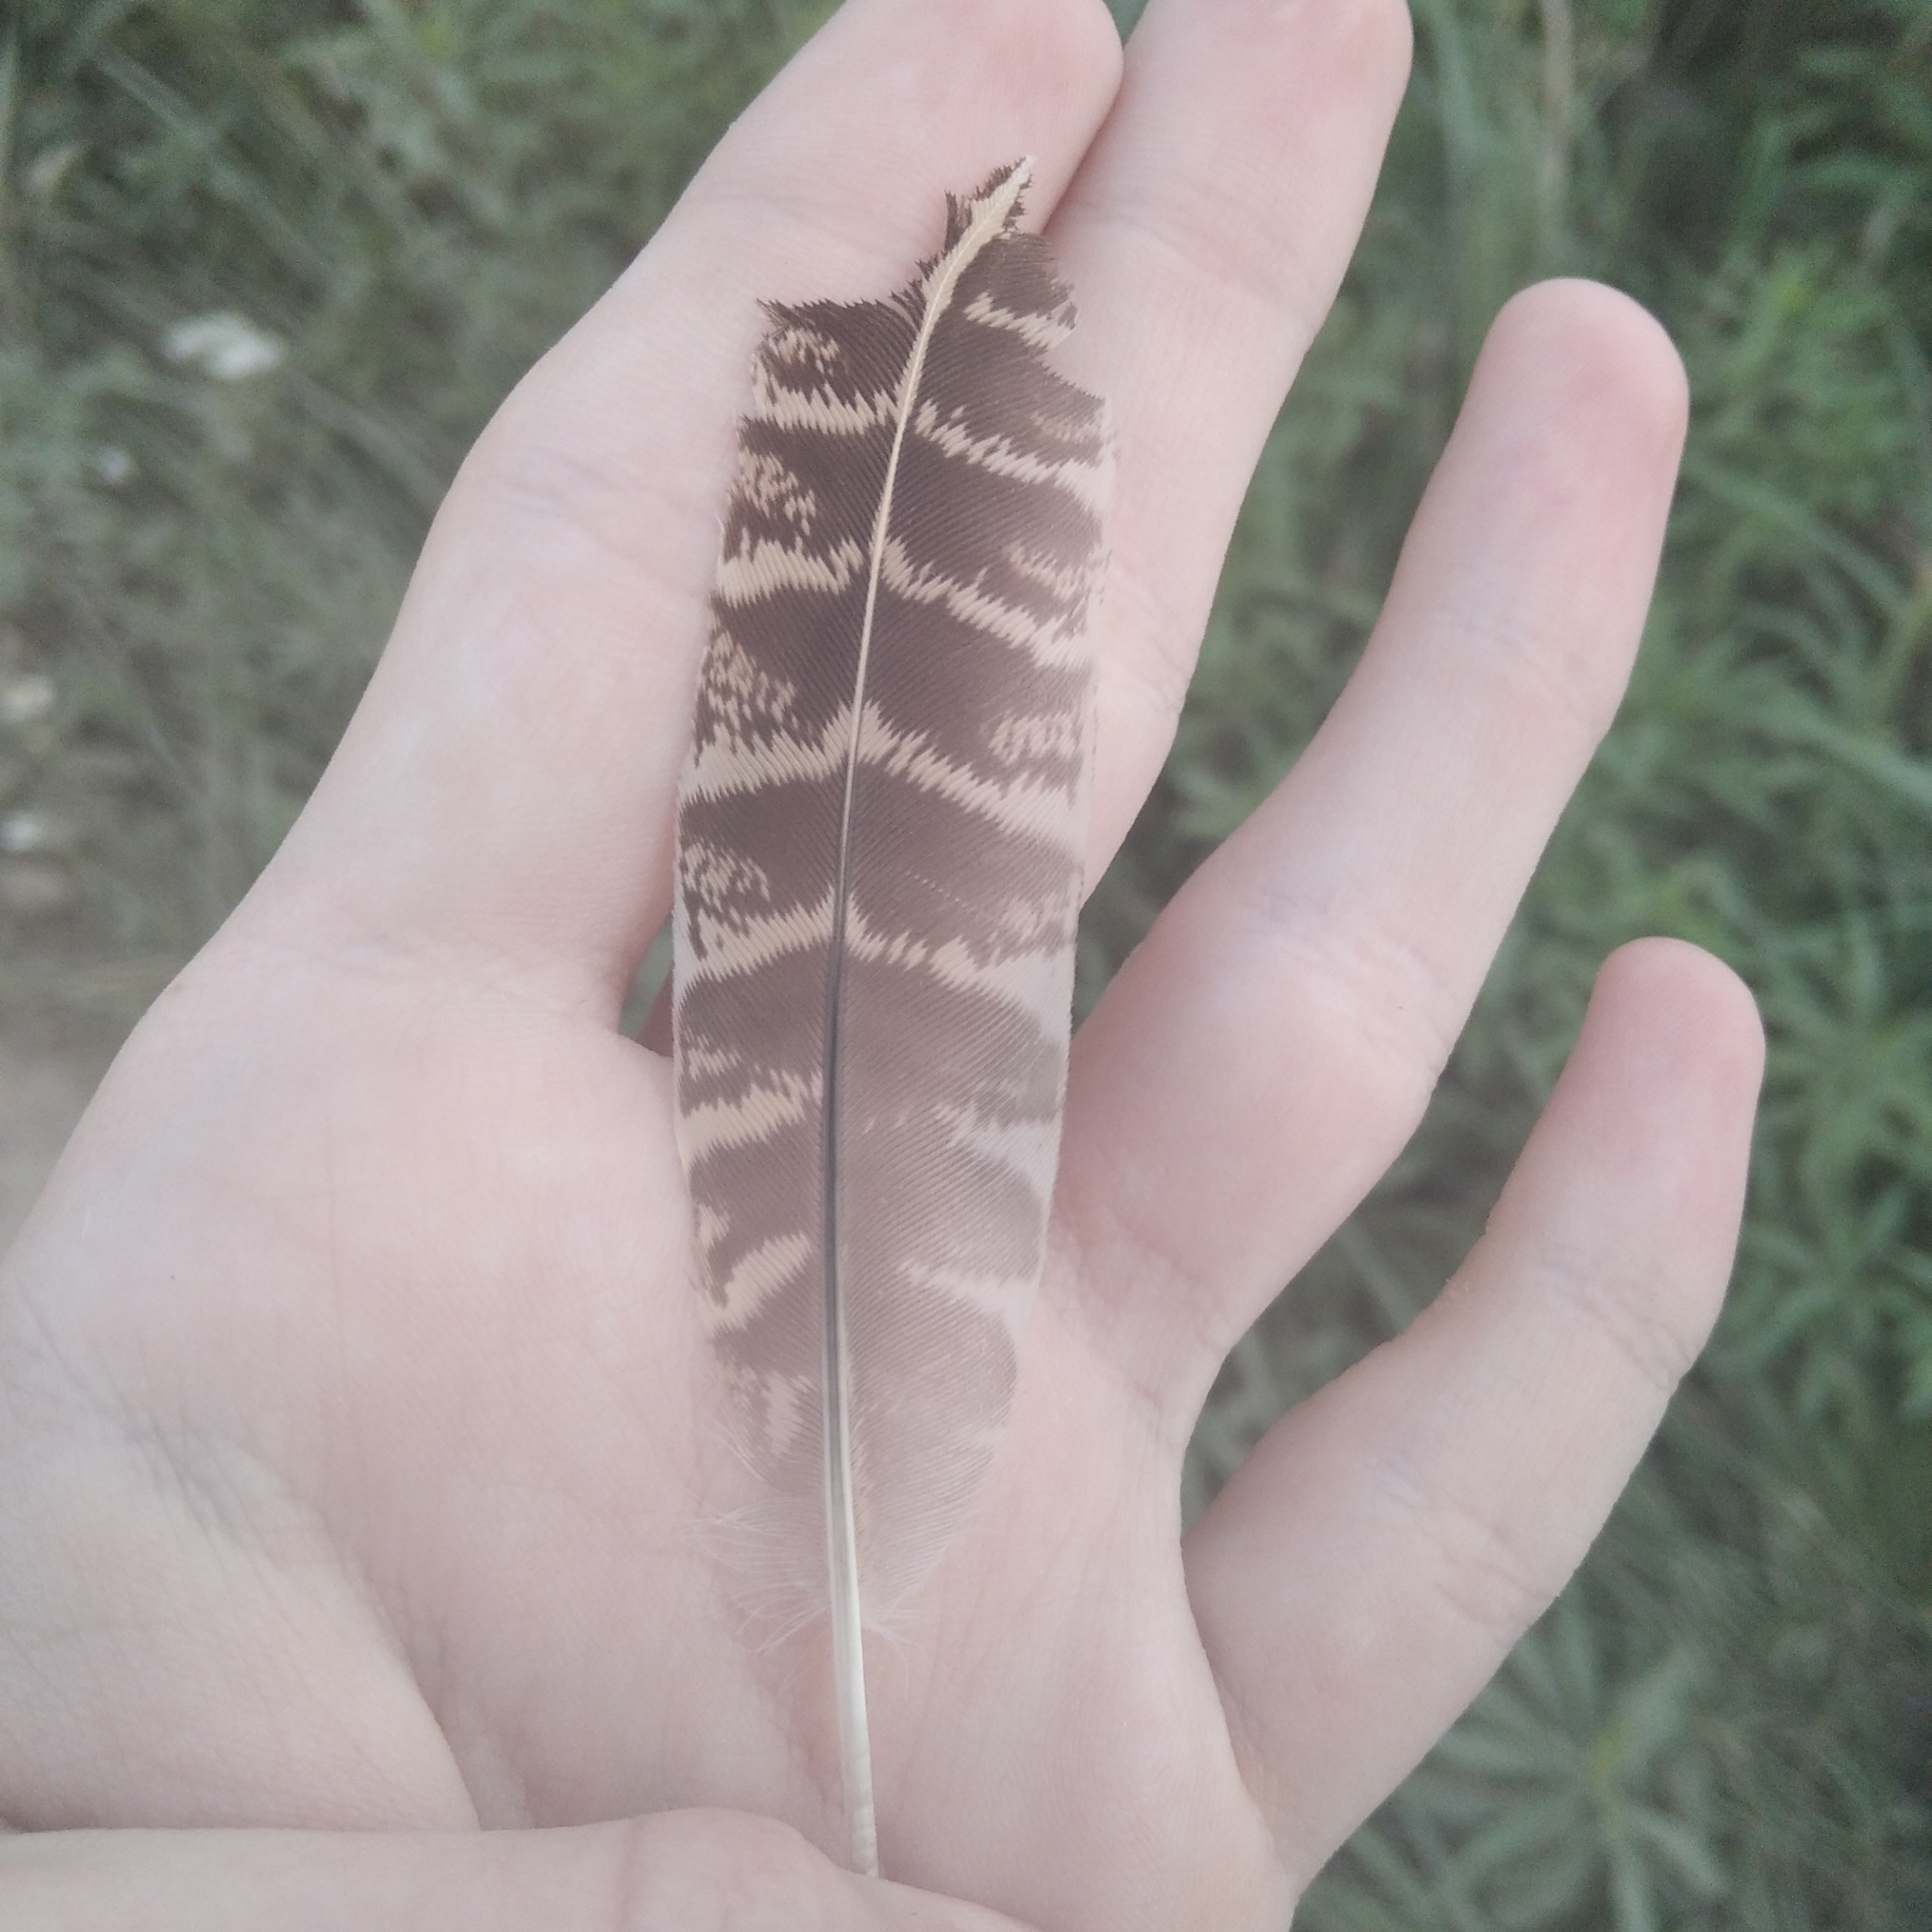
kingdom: Animalia
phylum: Chordata
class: Aves
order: Galliformes
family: Phasianidae
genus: Perdix
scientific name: Perdix perdix
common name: Grey partridge
